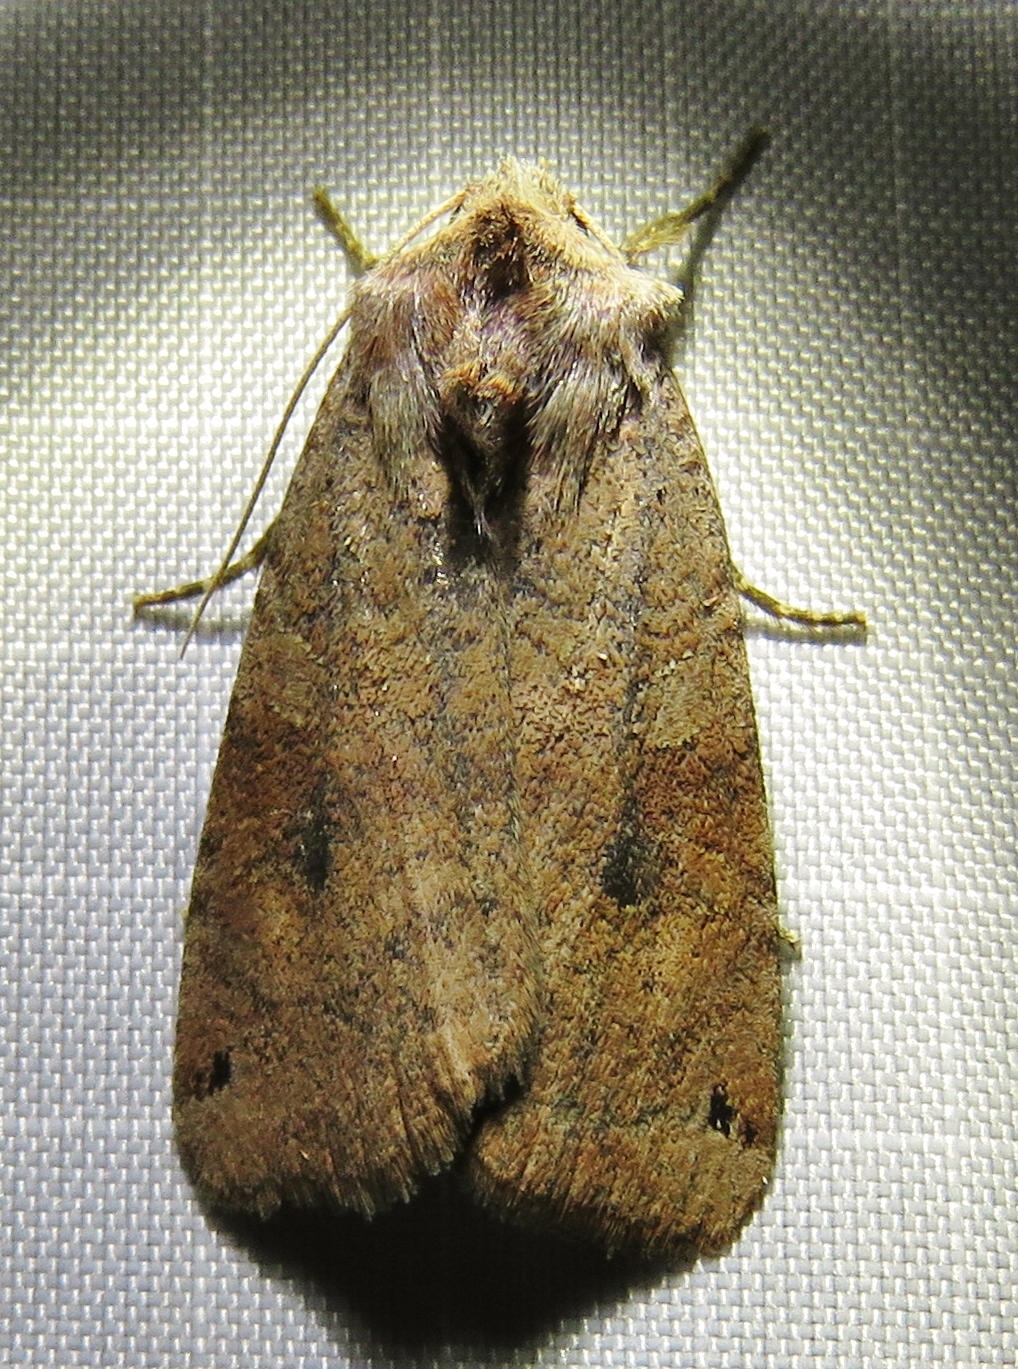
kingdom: Animalia
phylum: Arthropoda
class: Insecta
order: Lepidoptera
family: Noctuidae
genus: Xestia
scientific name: Xestia baja
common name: Dotted clay
